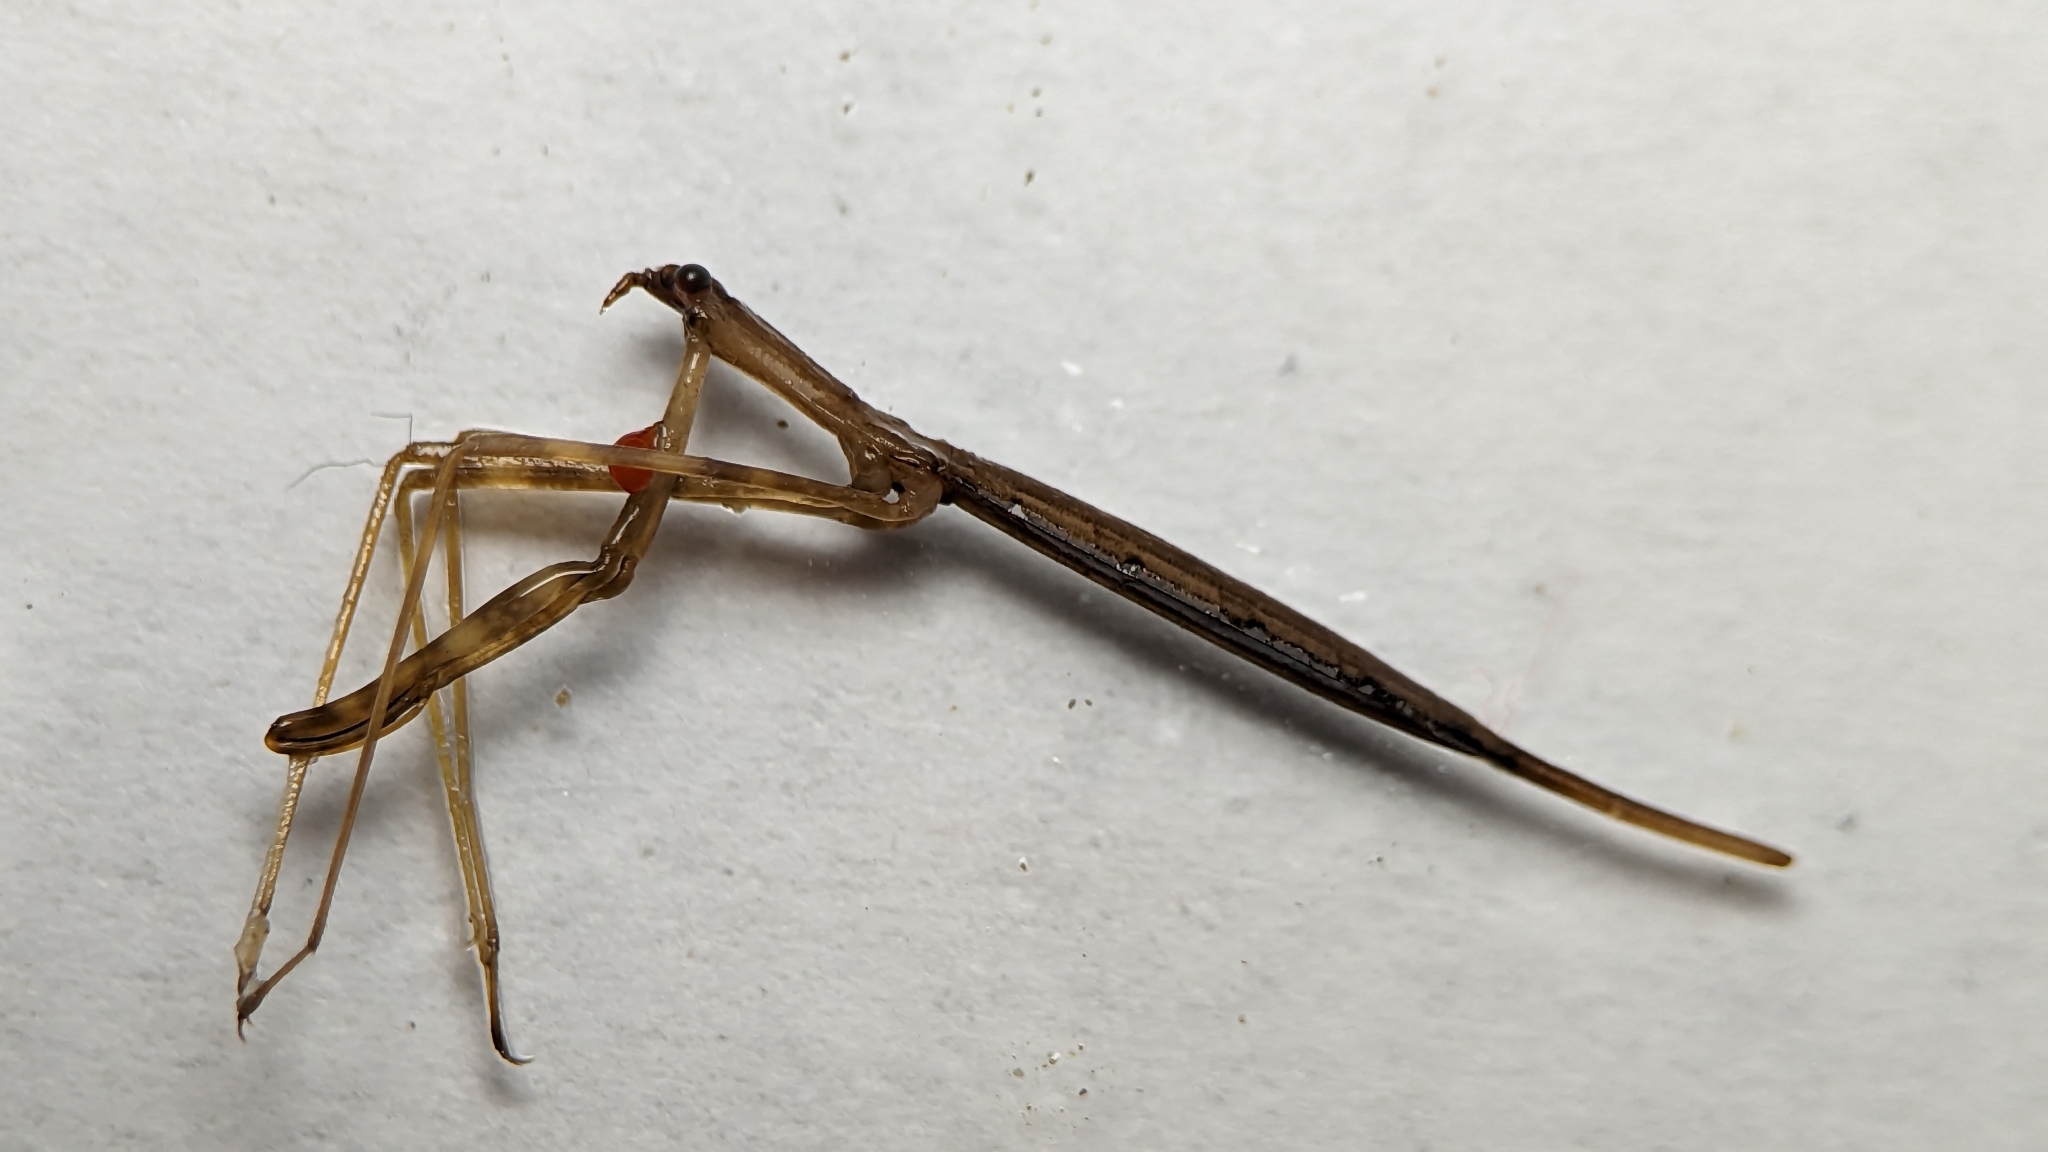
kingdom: Animalia
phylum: Arthropoda
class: Insecta
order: Hemiptera
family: Nepidae
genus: Ranatra
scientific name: Ranatra
